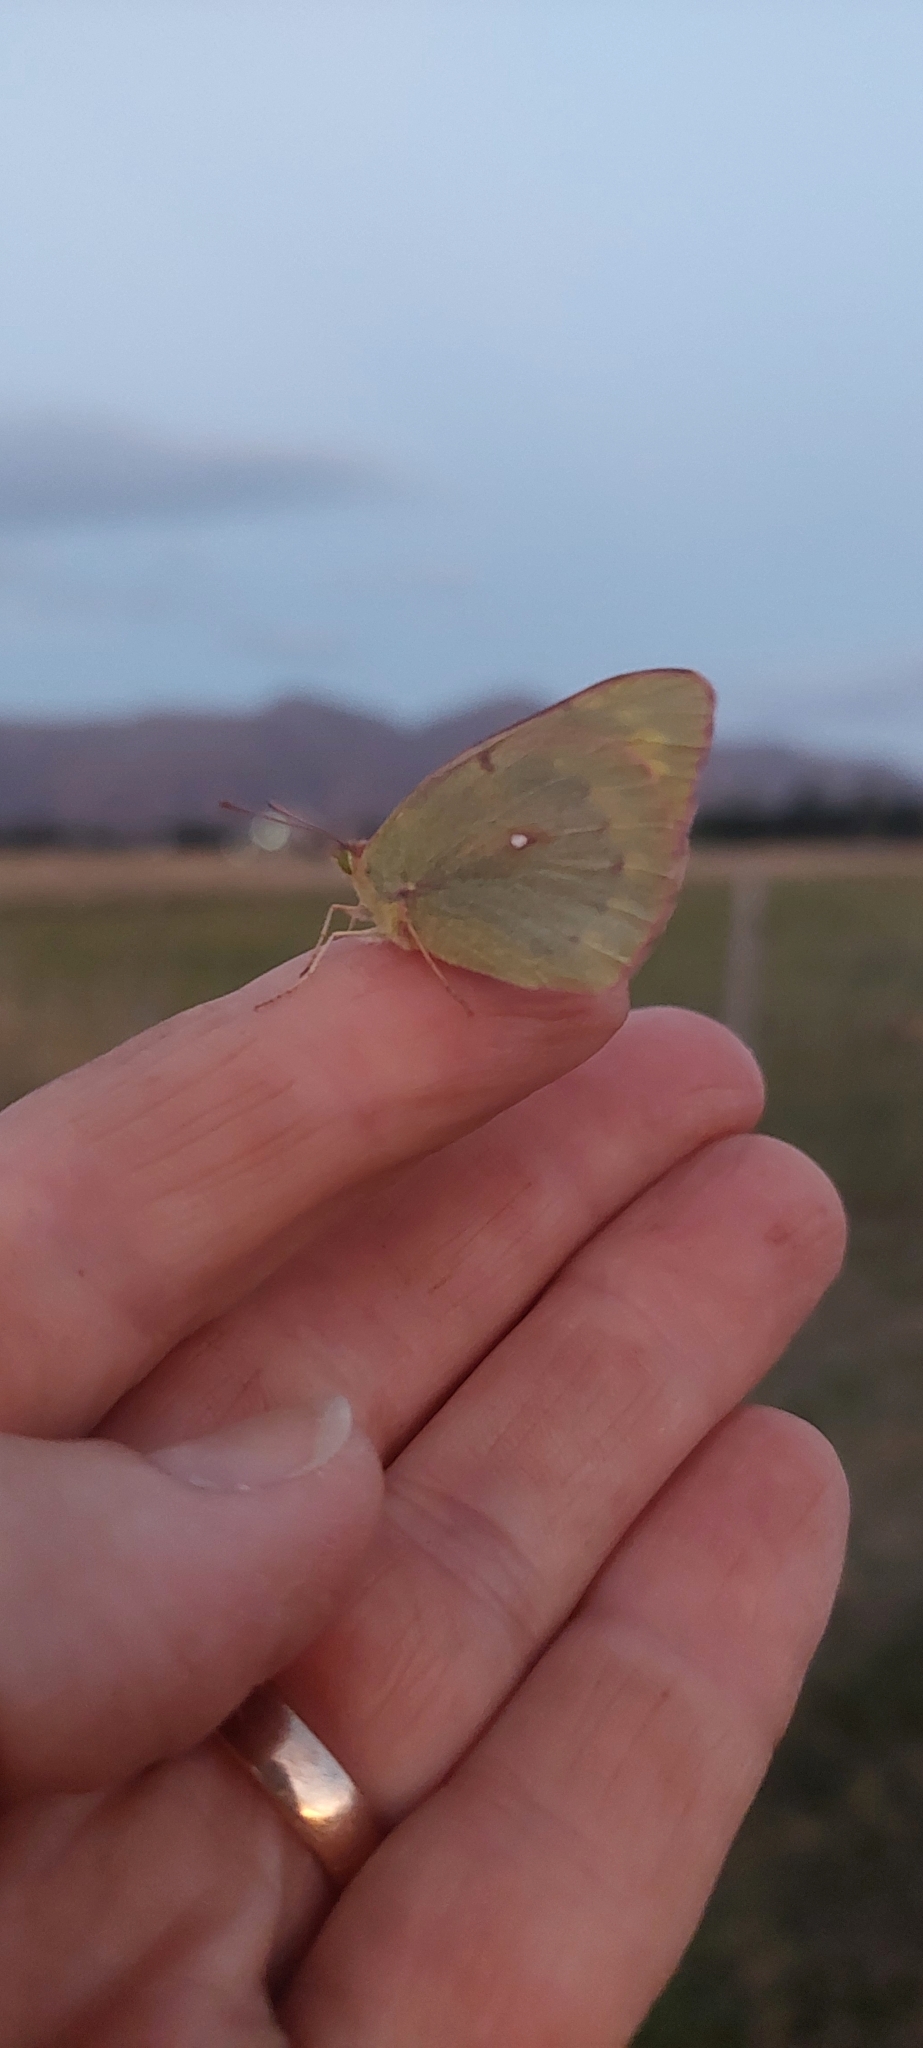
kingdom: Animalia
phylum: Arthropoda
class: Insecta
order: Lepidoptera
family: Pieridae
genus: Colias
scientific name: Colias lesbia
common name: Lesbia clouded yellow
